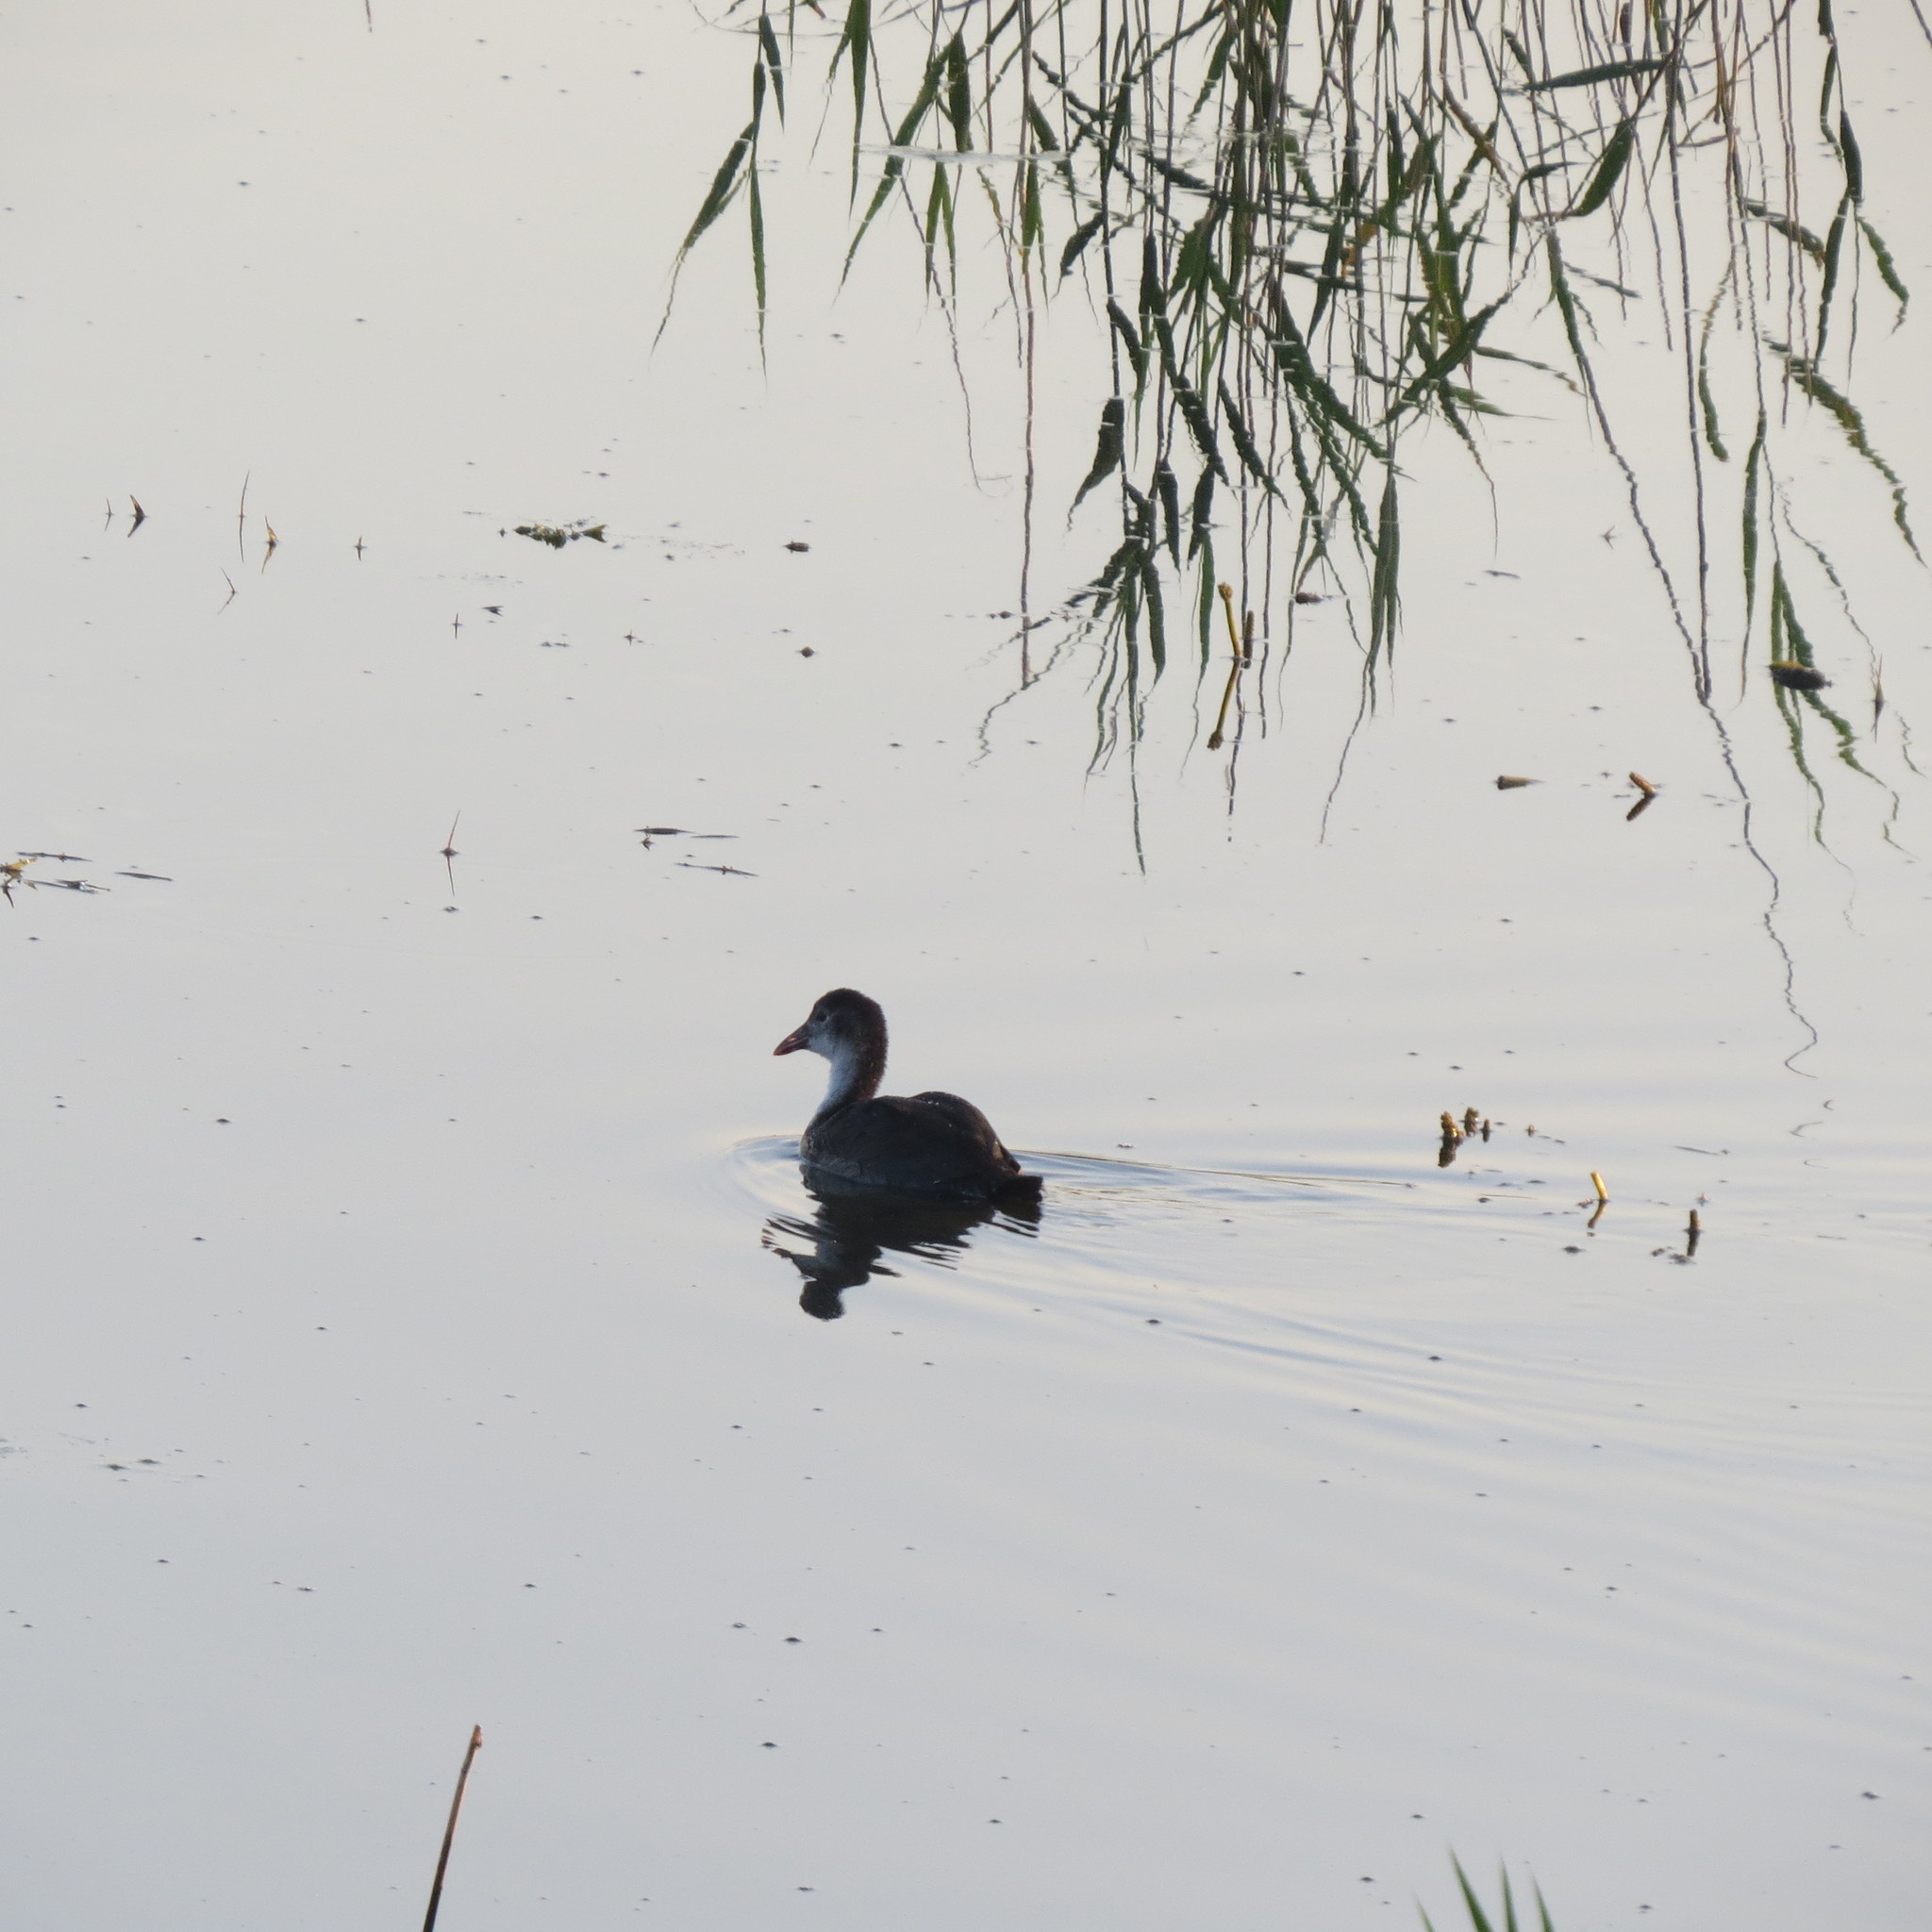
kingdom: Animalia
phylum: Chordata
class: Aves
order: Gruiformes
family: Rallidae
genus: Fulica
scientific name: Fulica atra
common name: Eurasian coot
